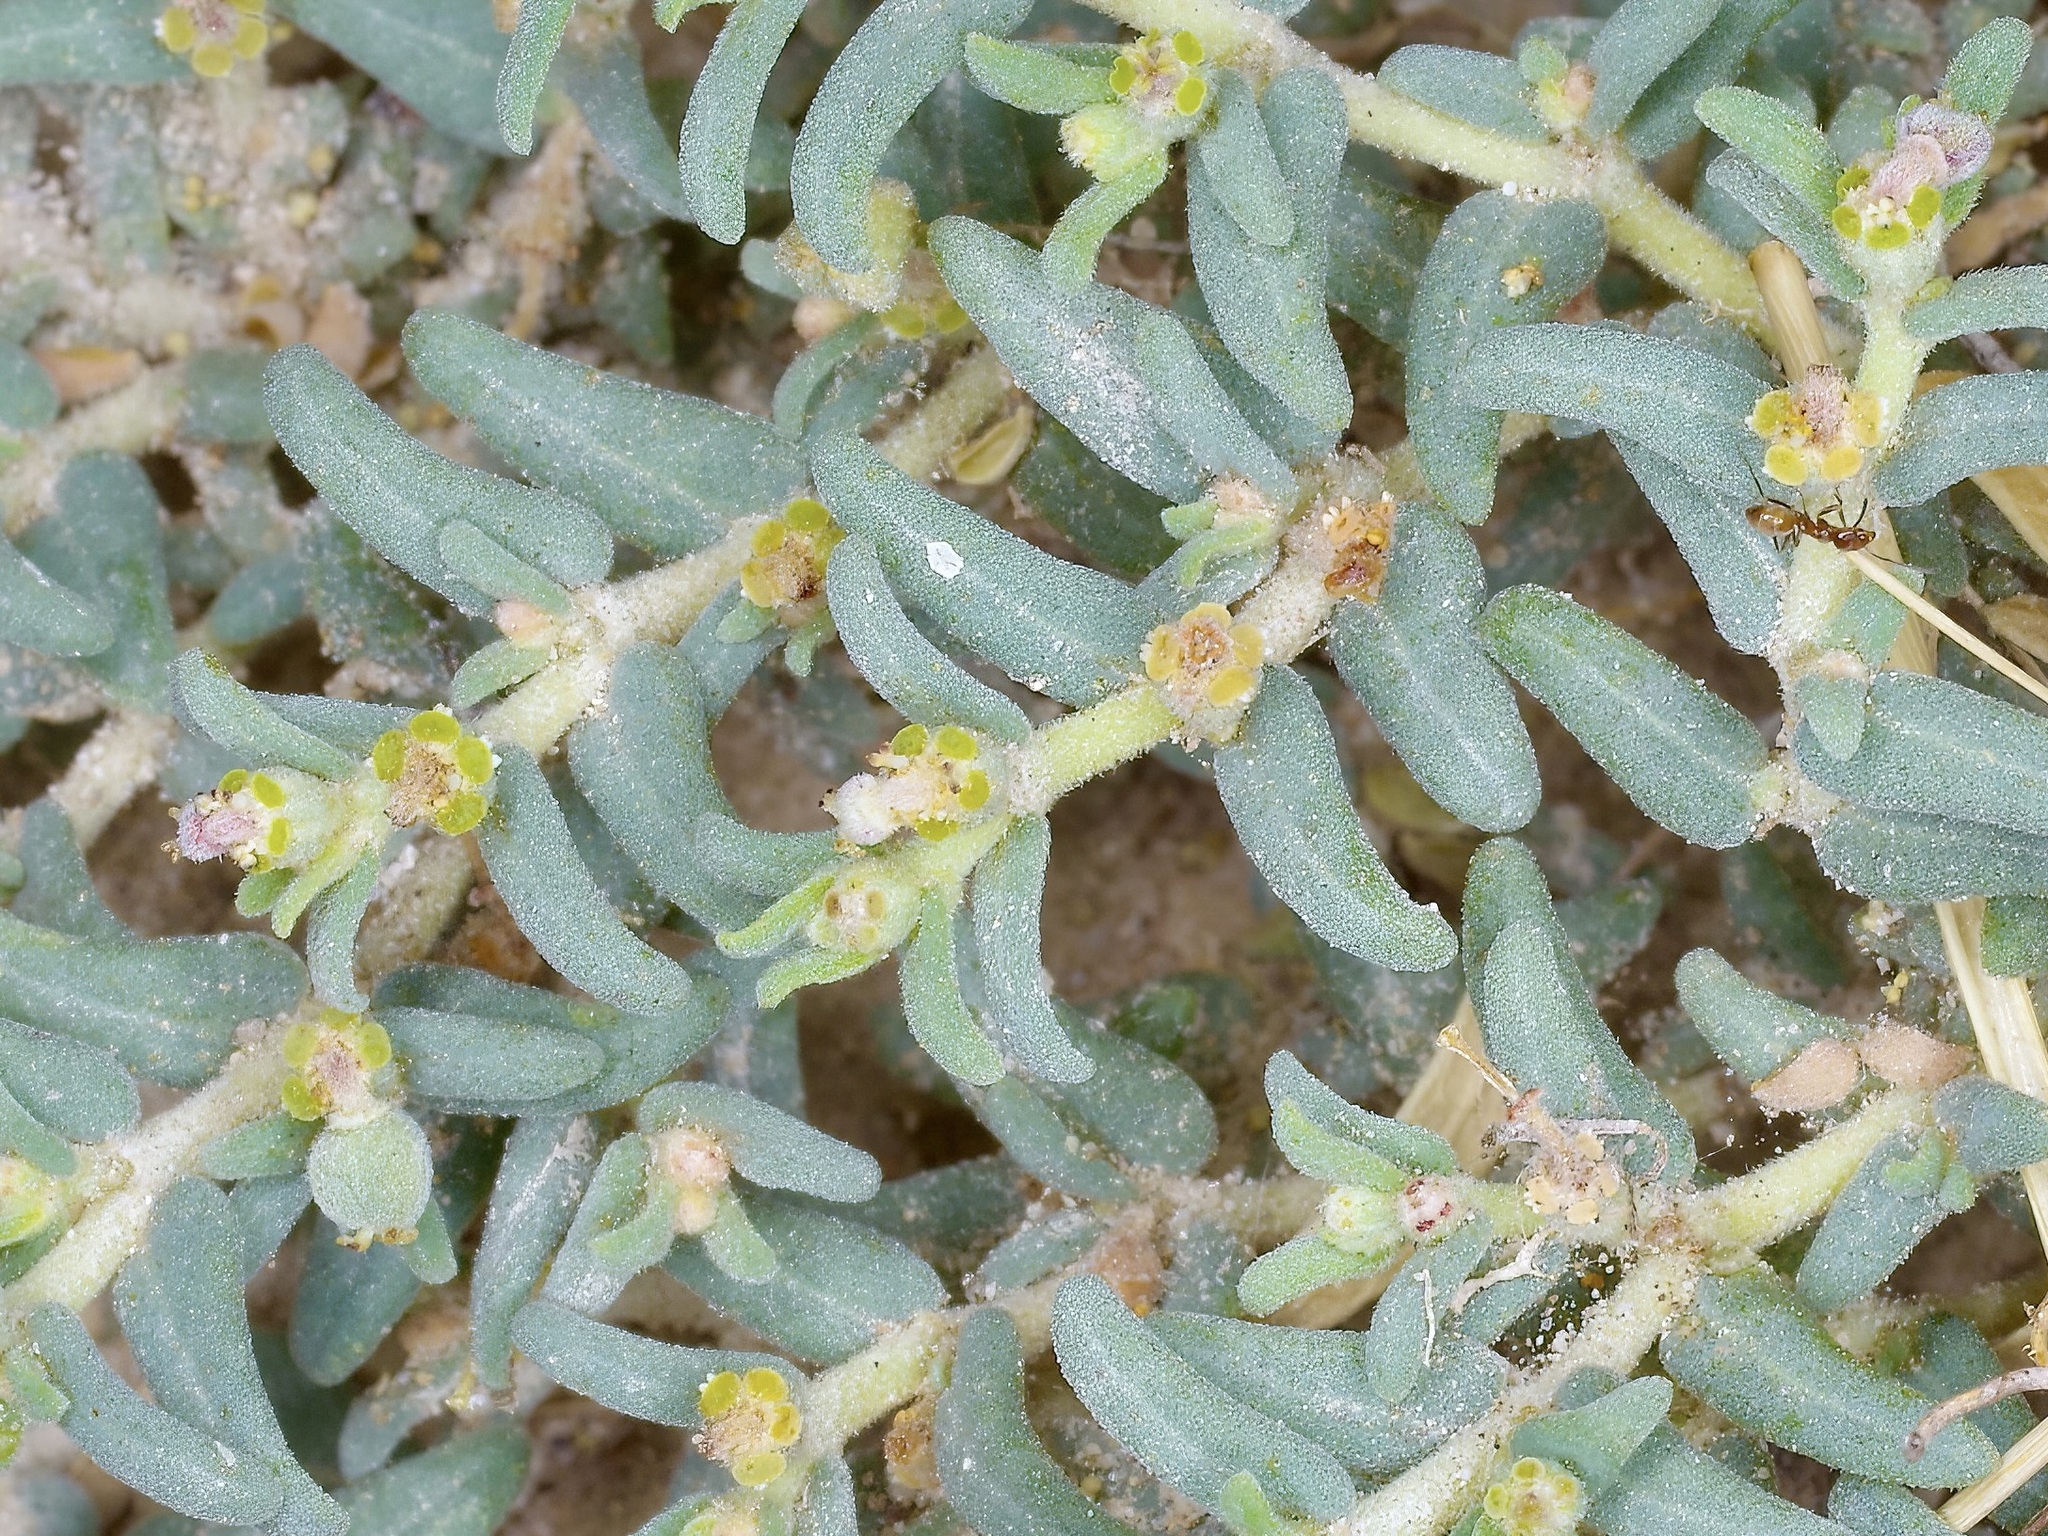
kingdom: Plantae
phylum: Tracheophyta
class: Magnoliopsida
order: Malpighiales
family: Euphorbiaceae
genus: Euphorbia
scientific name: Euphorbia lata
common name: Hoary euphorbia
